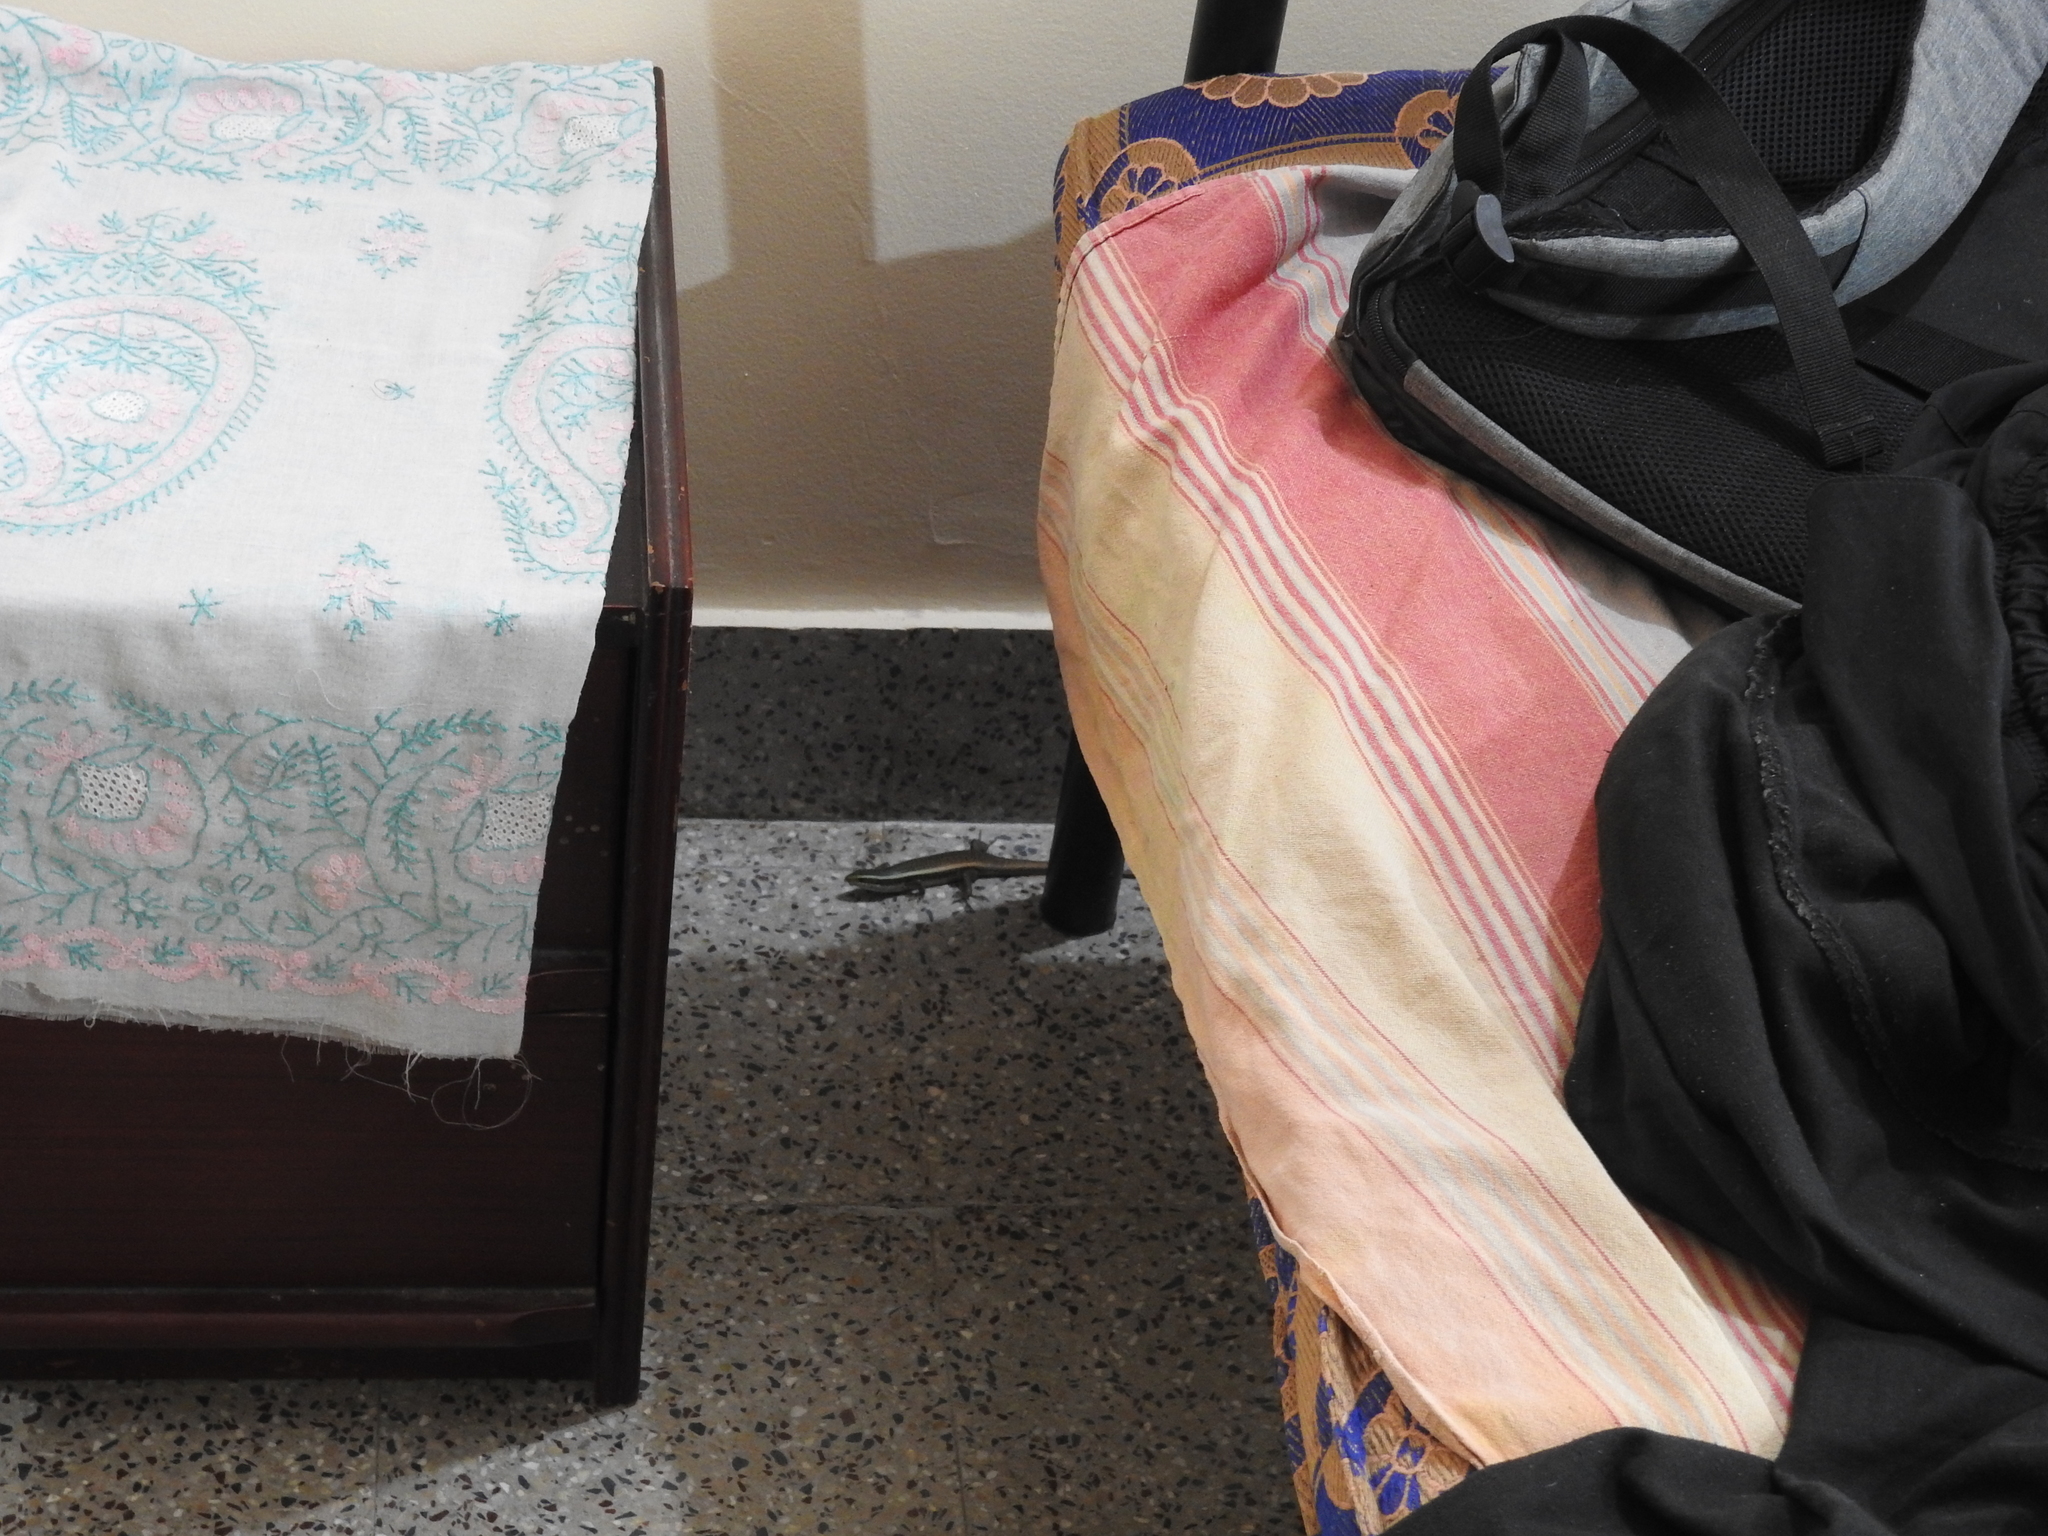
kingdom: Animalia
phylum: Chordata
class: Squamata
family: Scincidae
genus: Eutropis
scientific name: Eutropis carinata
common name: Keeled indian mabuya
